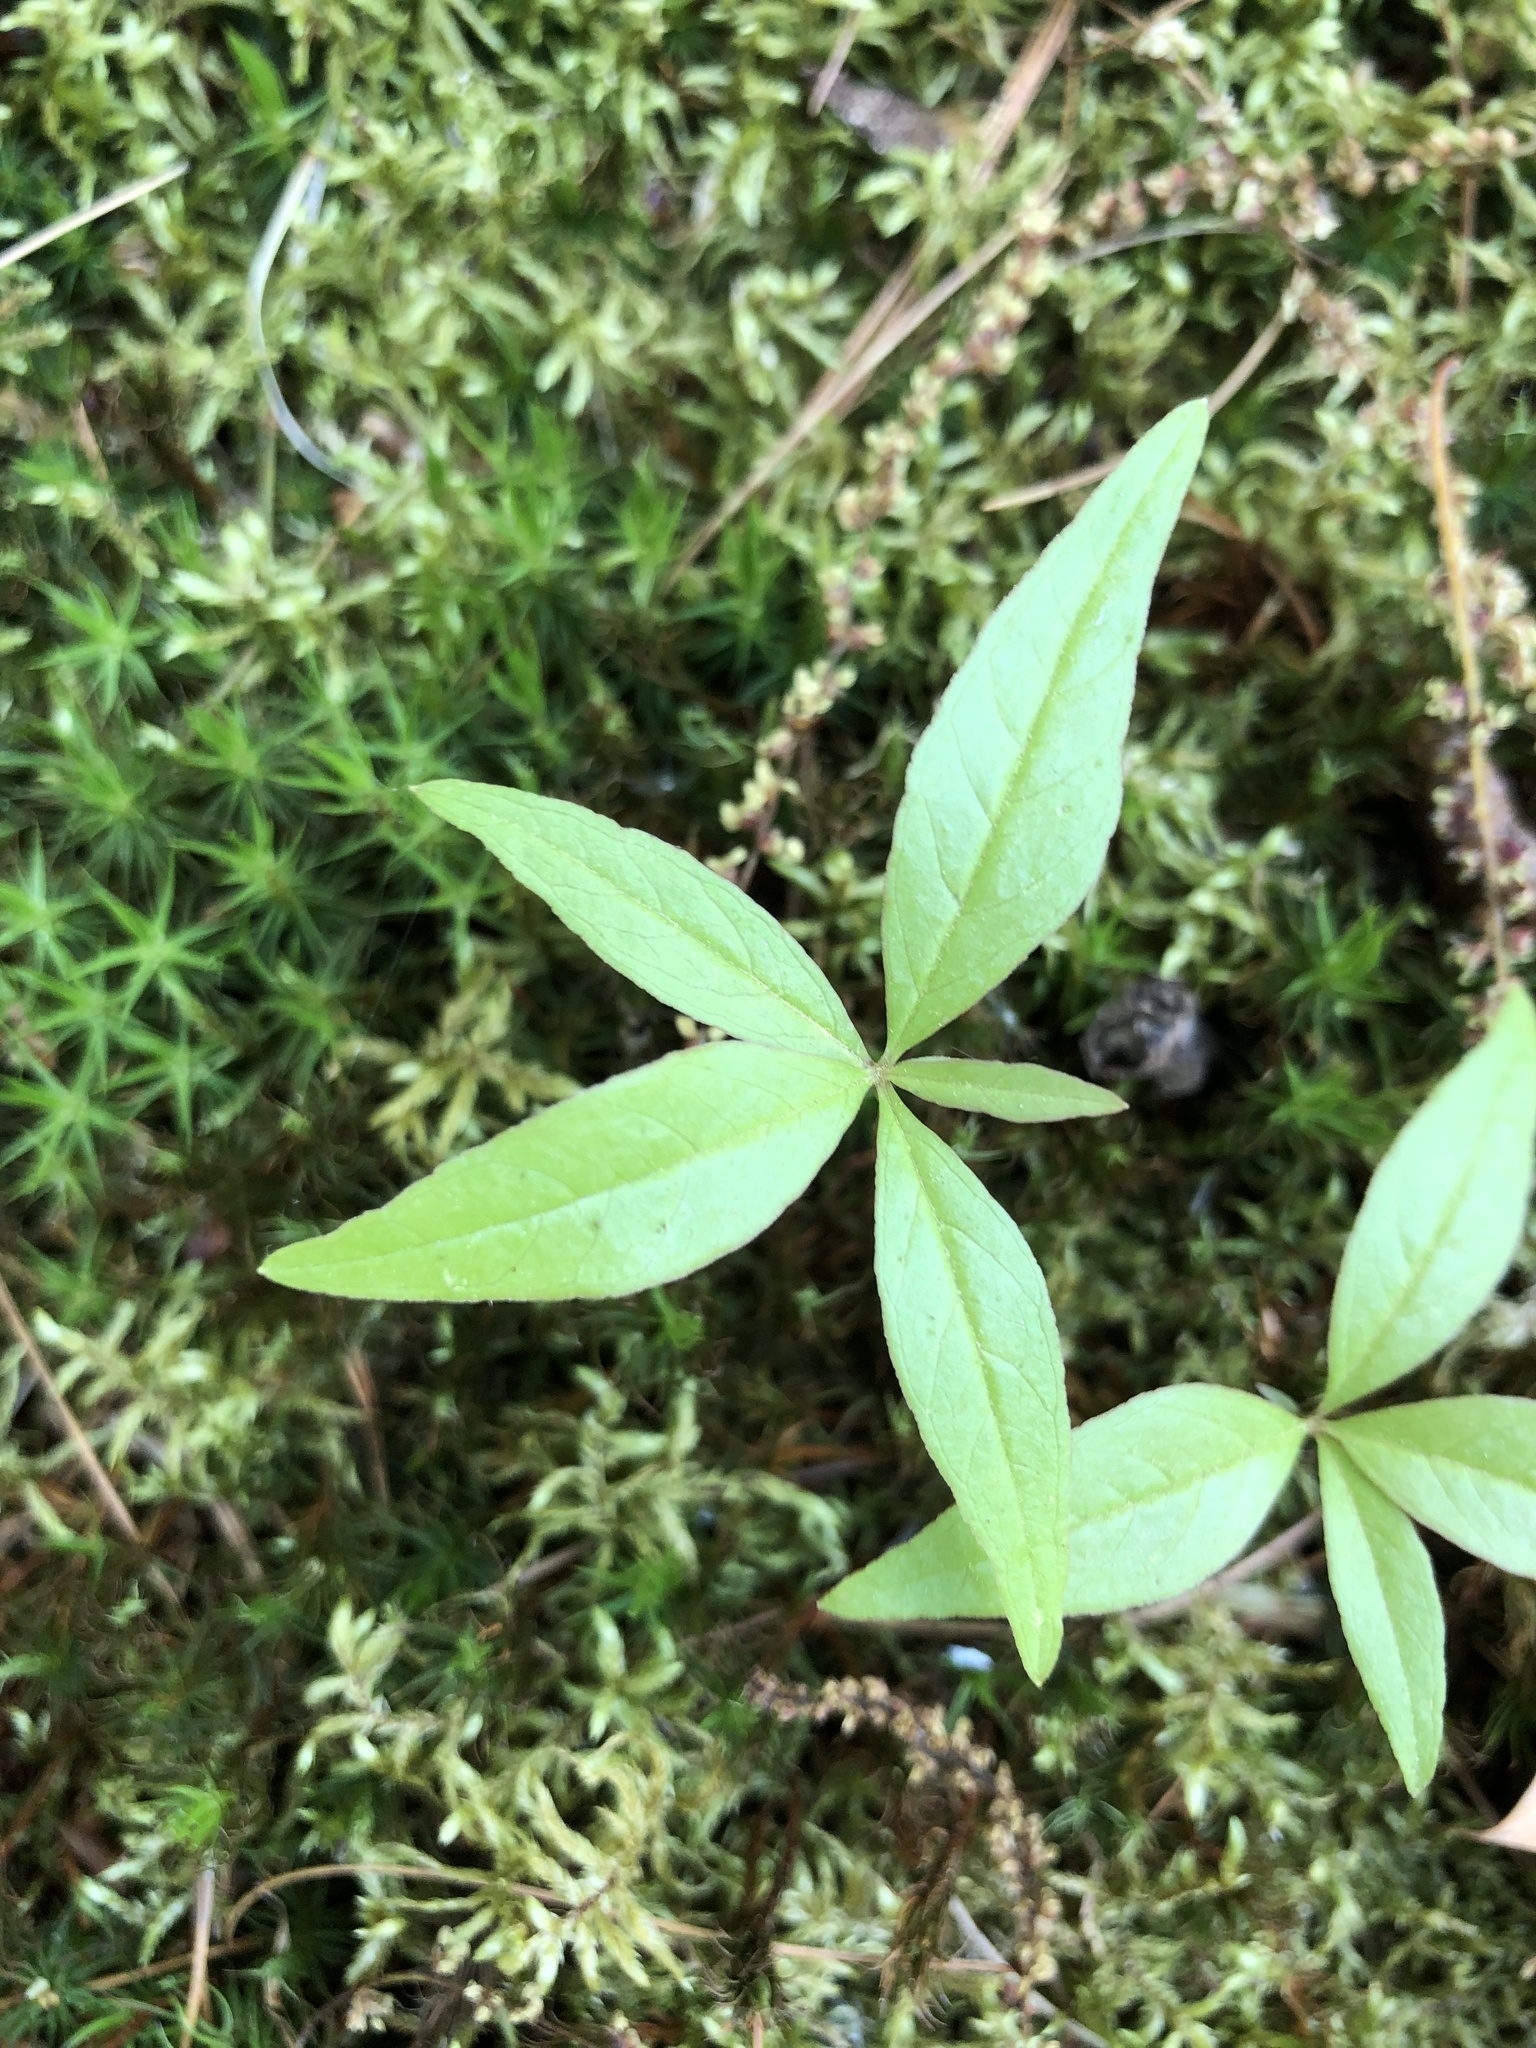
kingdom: Plantae
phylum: Tracheophyta
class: Magnoliopsida
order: Ericales
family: Primulaceae
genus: Lysimachia
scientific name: Lysimachia borealis
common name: American starflower
